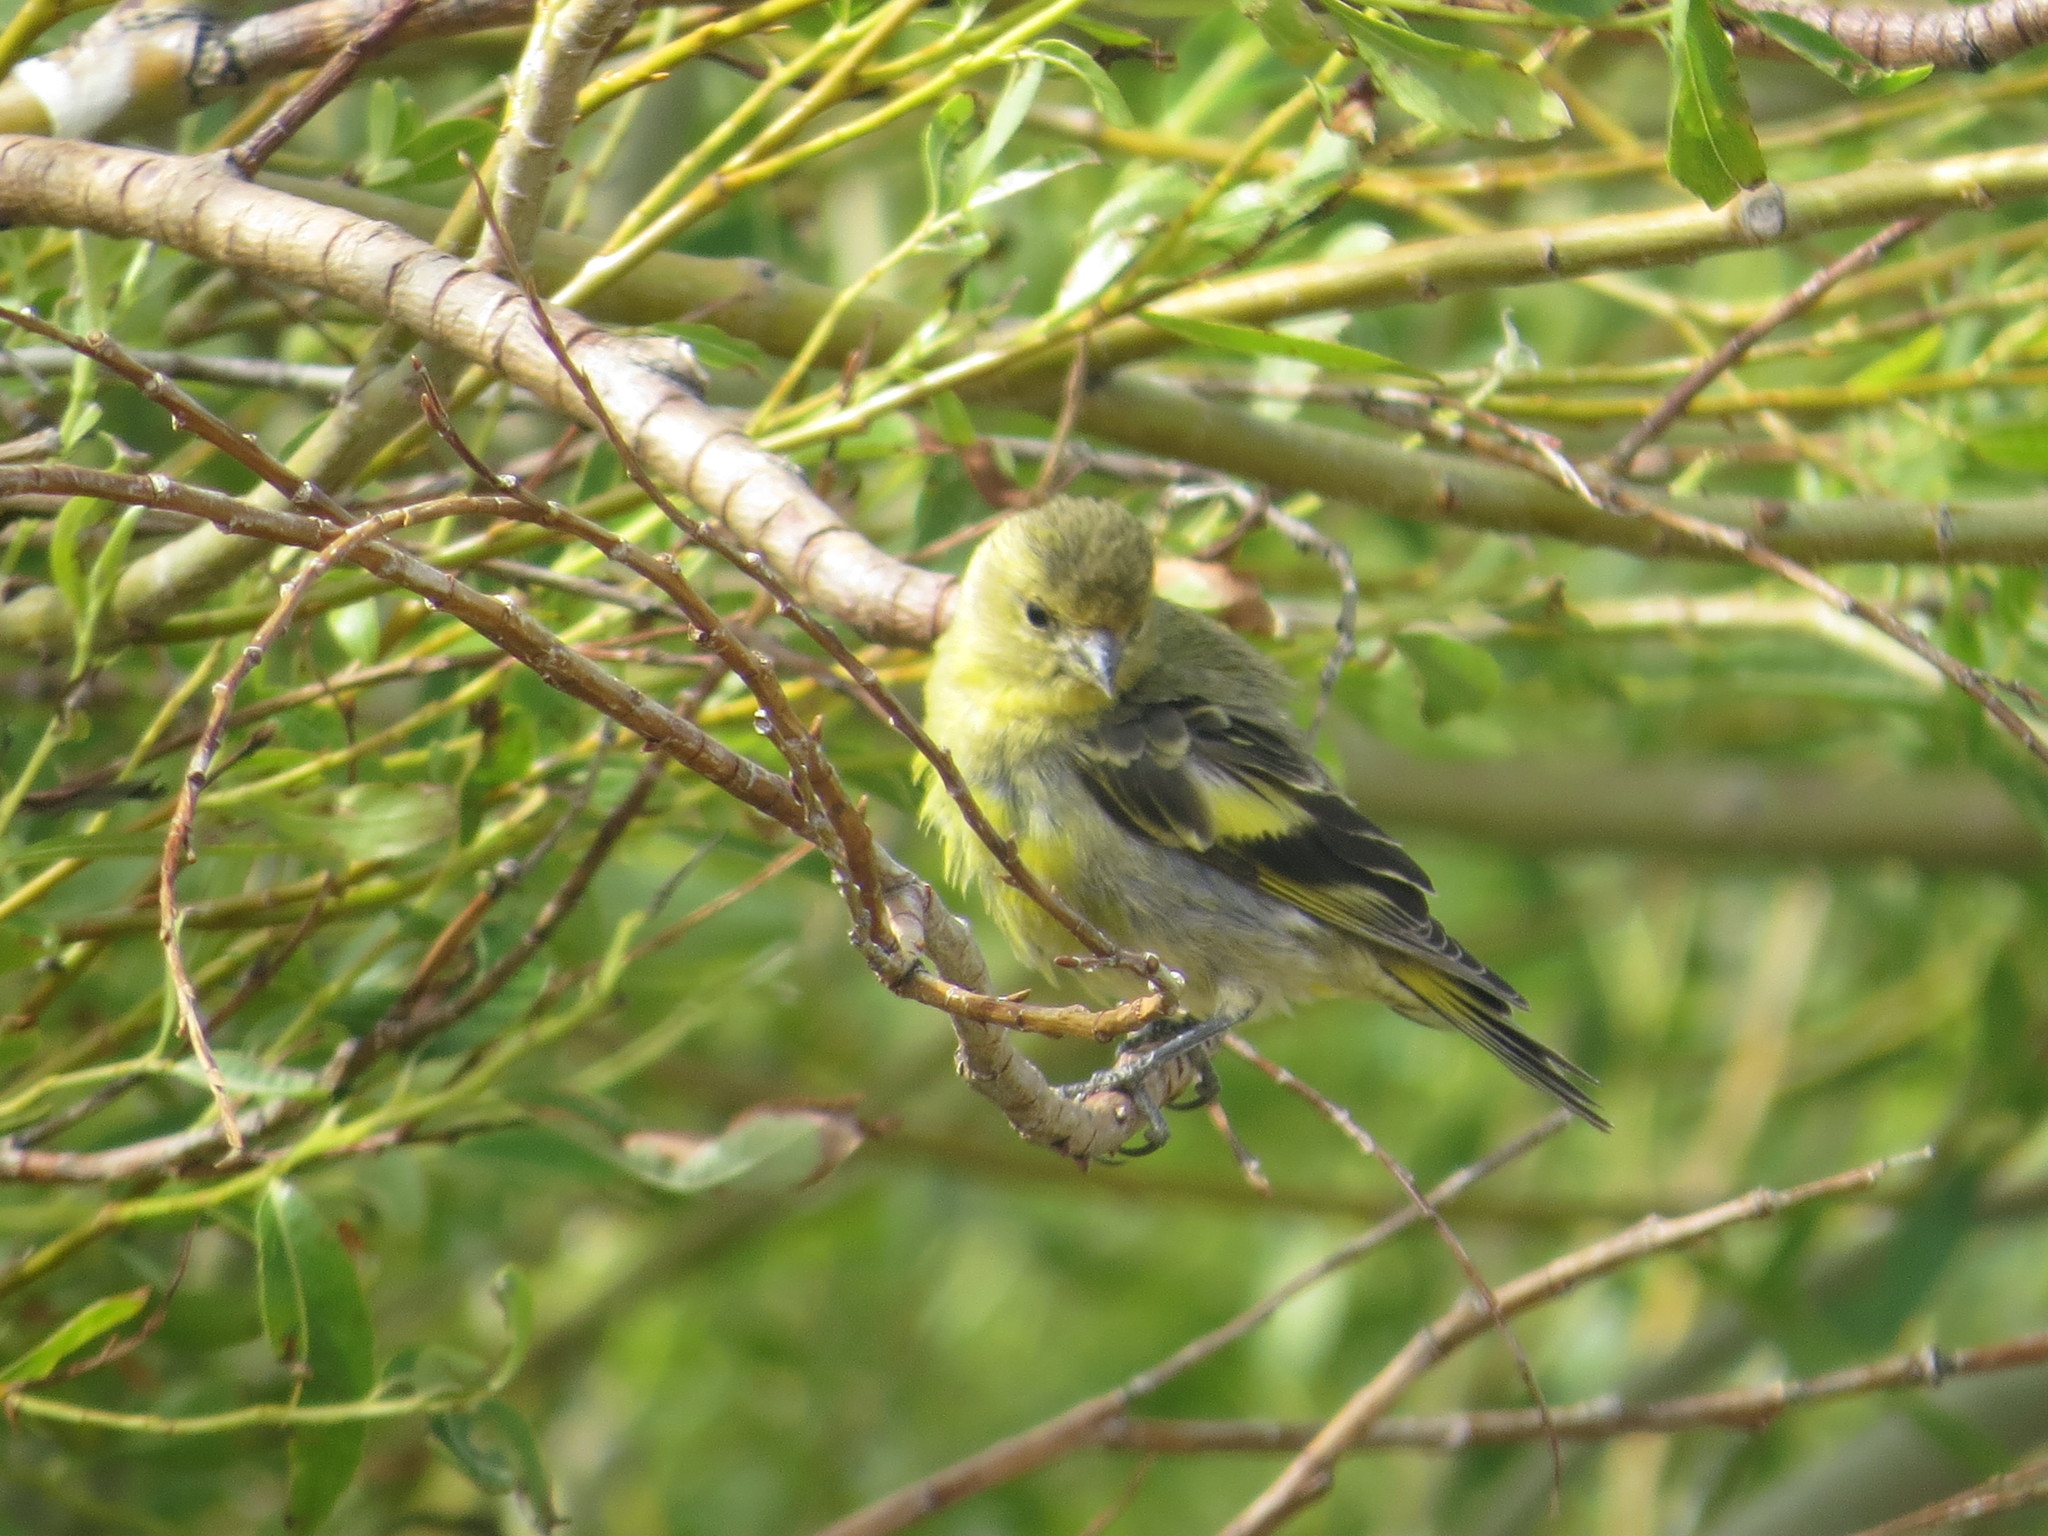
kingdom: Animalia
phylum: Chordata
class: Aves
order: Passeriformes
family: Fringillidae
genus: Spinus
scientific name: Spinus barbatus
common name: Black-chinned siskin
